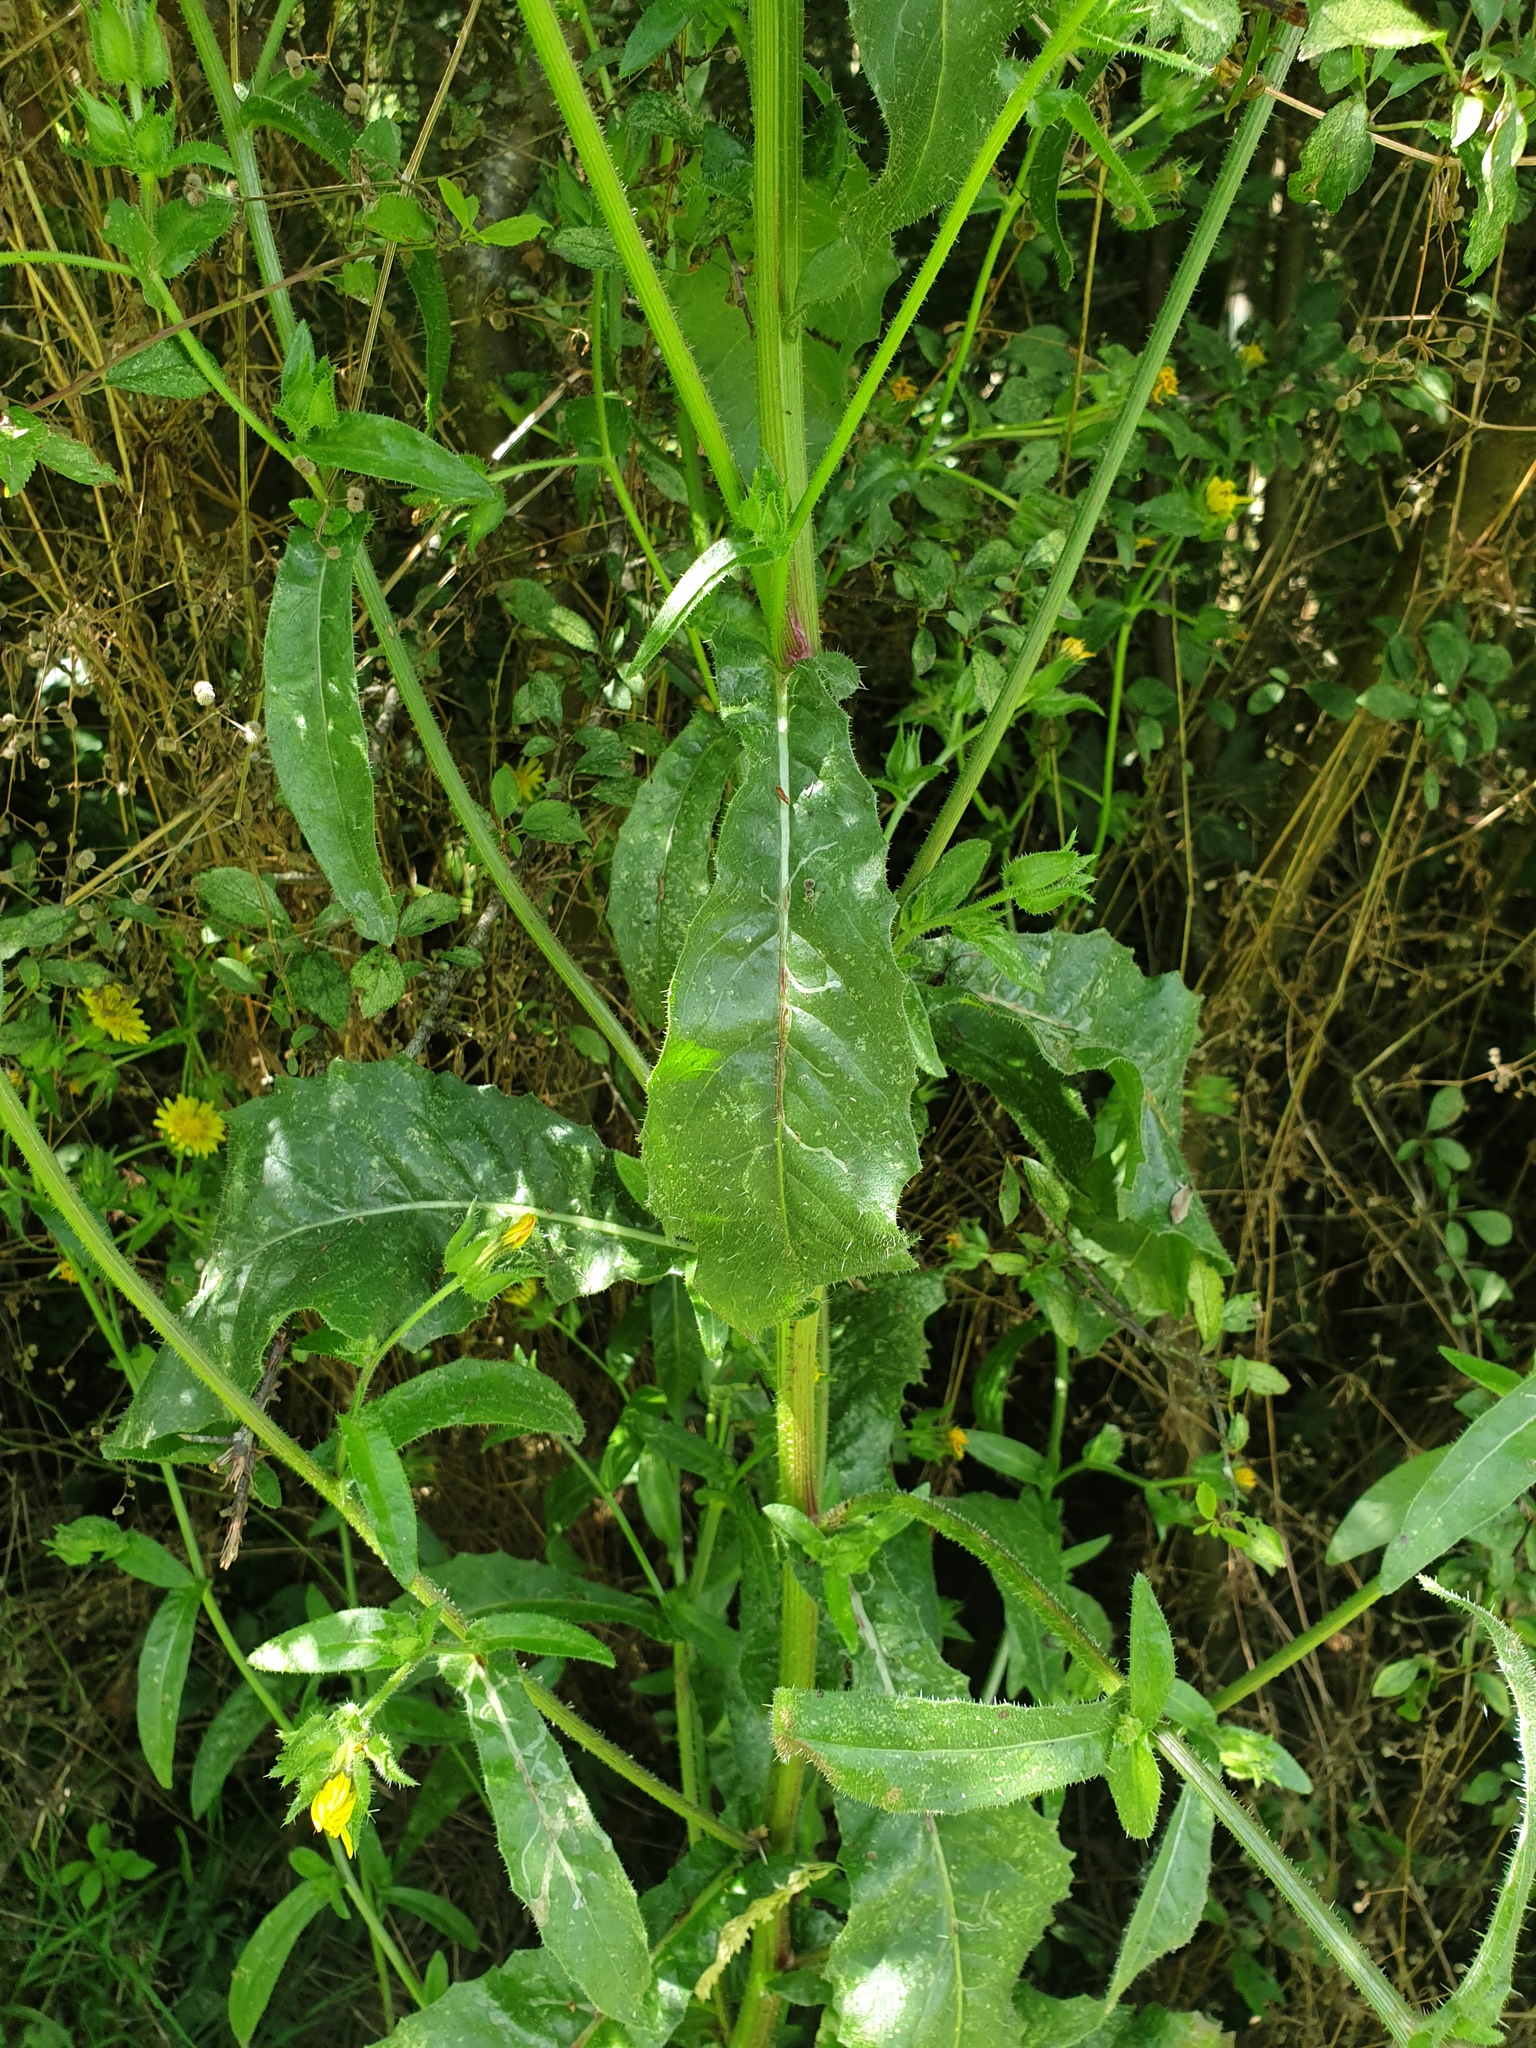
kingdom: Plantae
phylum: Tracheophyta
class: Magnoliopsida
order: Asterales
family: Asteraceae
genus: Helminthotheca
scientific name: Helminthotheca echioides
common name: Ox-tongue
